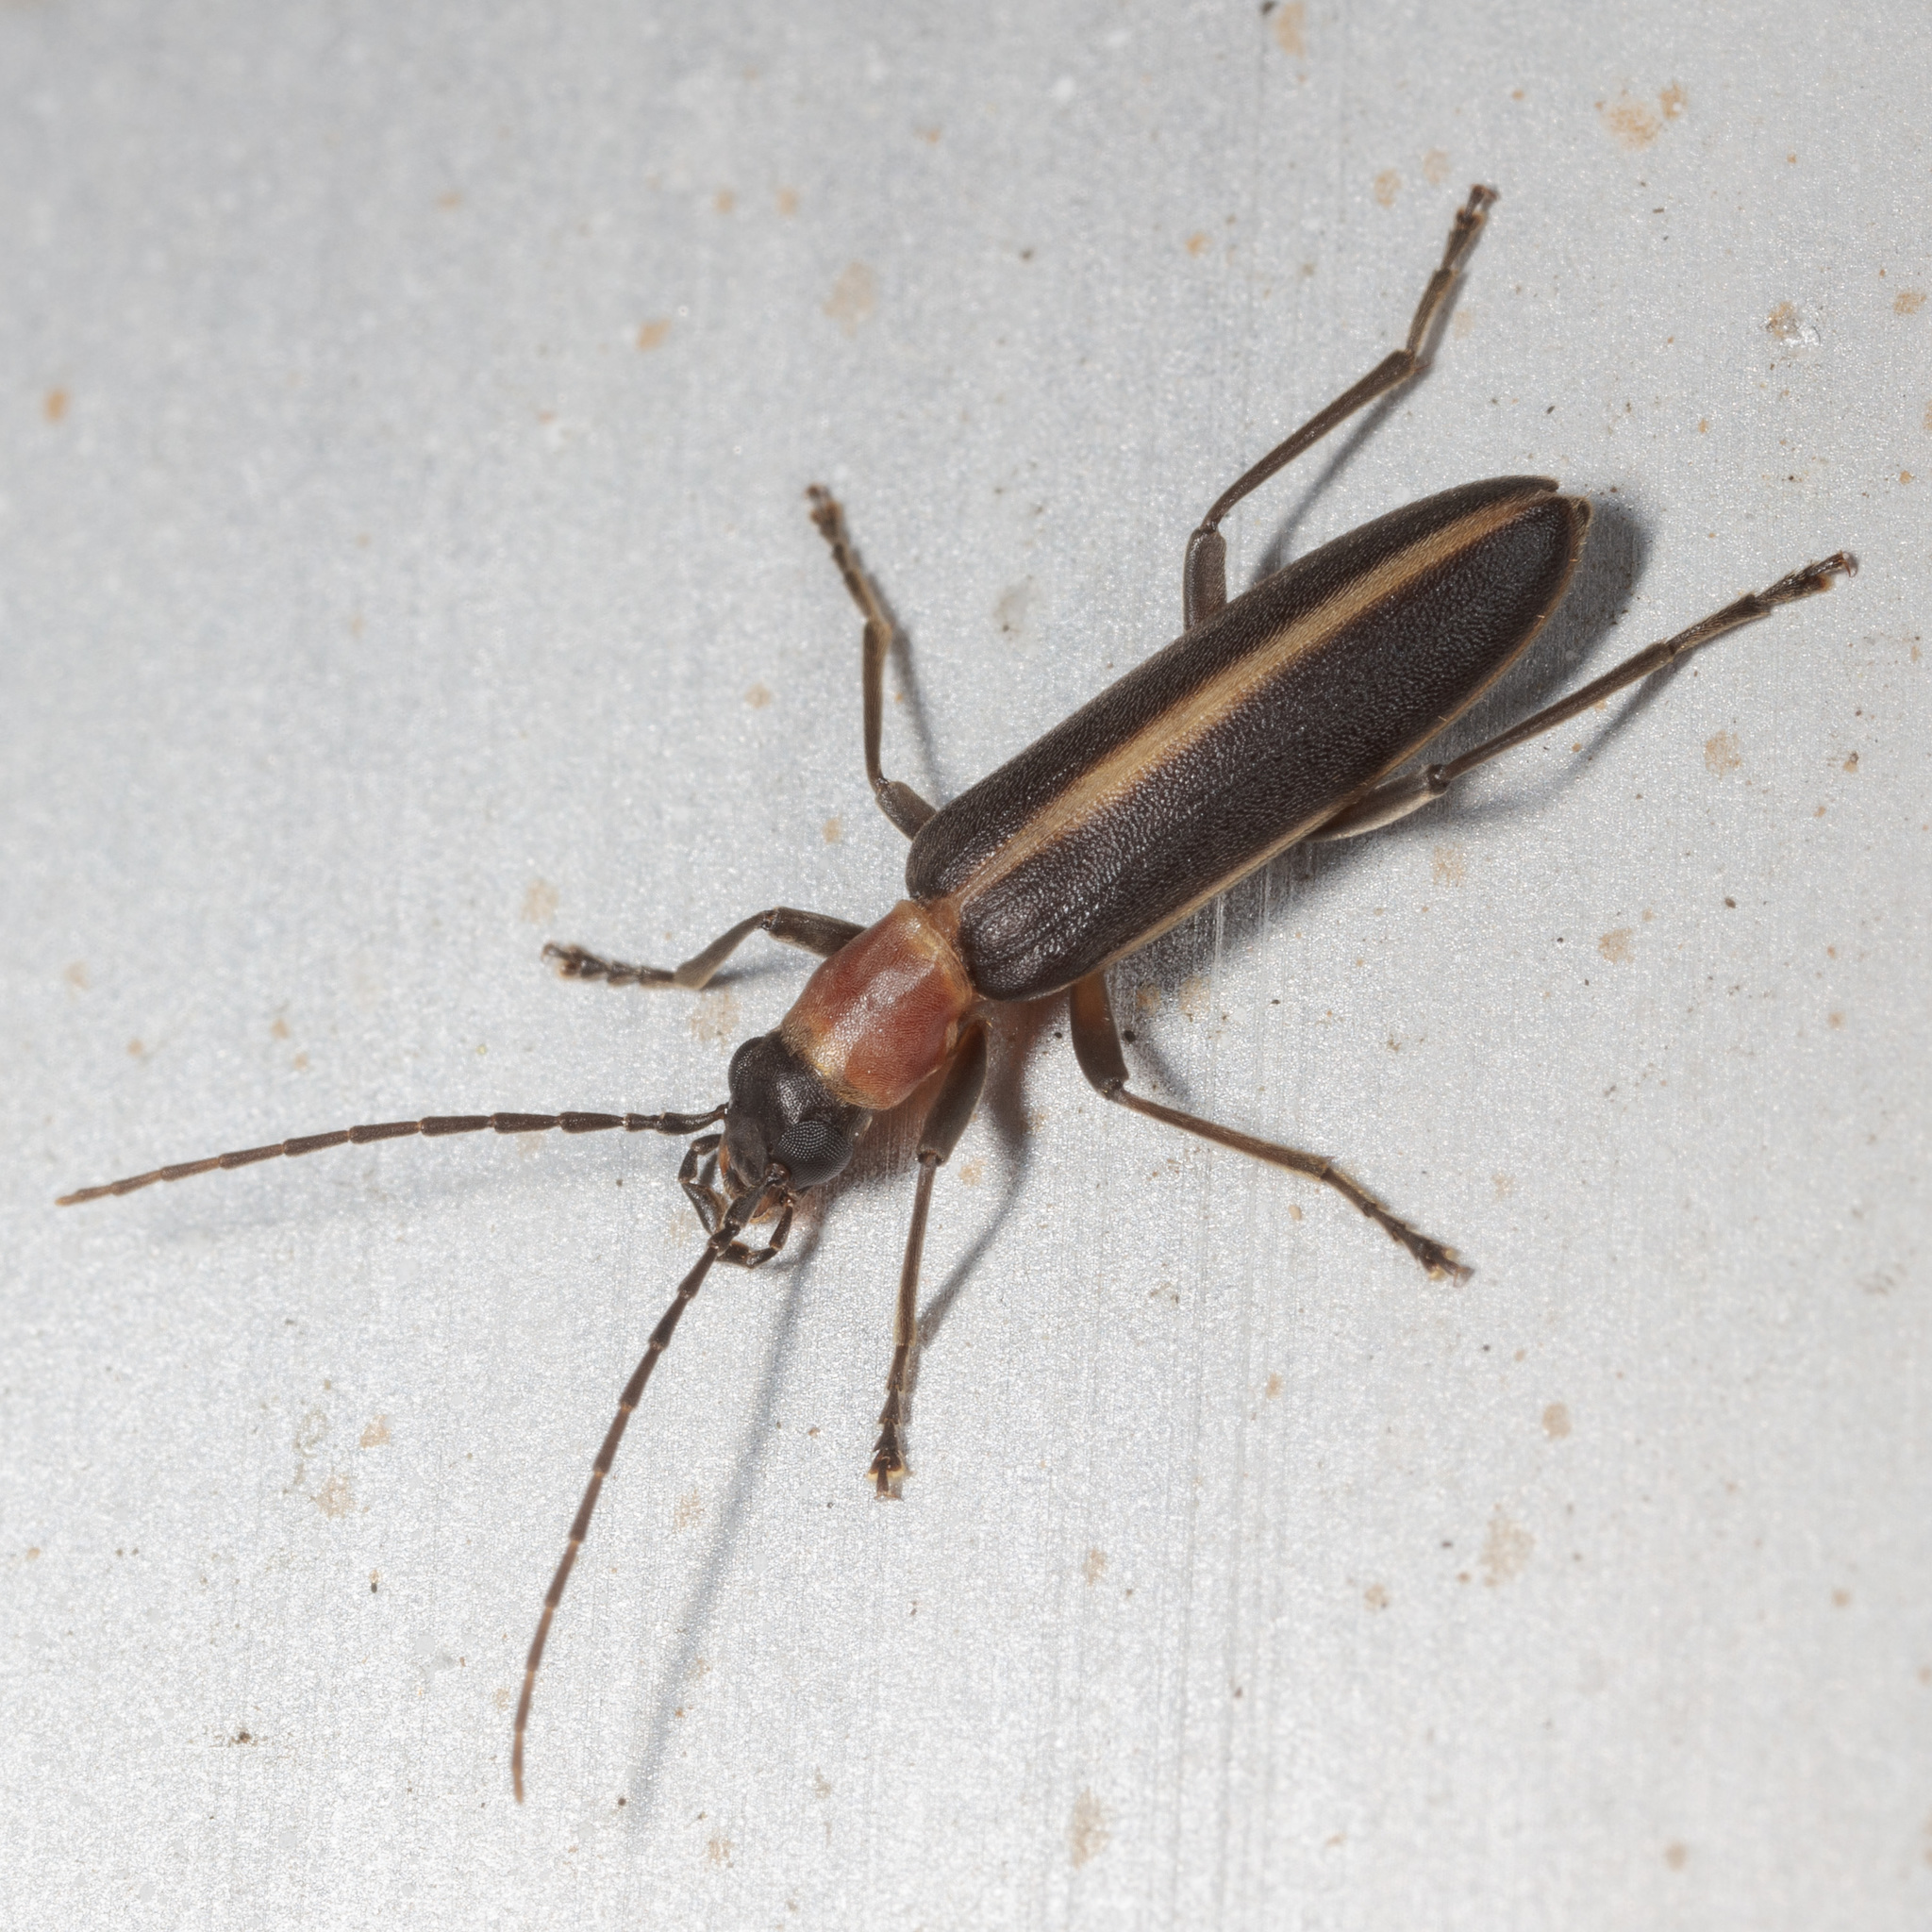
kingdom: Animalia
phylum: Arthropoda
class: Insecta
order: Coleoptera
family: Oedemeridae
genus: Oxycopis
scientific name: Oxycopis mimetica
